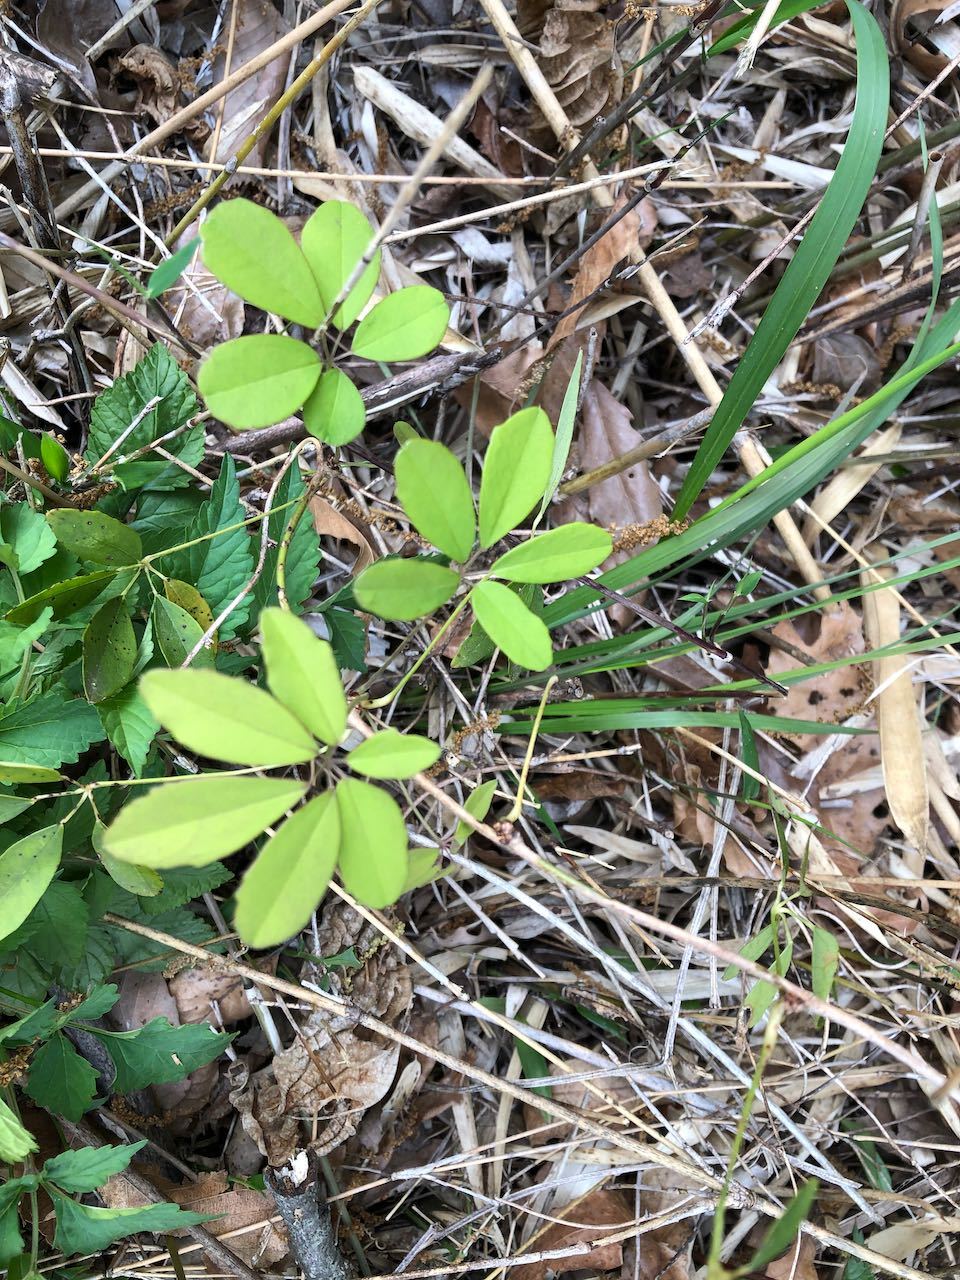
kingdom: Plantae
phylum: Tracheophyta
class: Magnoliopsida
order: Ranunculales
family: Lardizabalaceae
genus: Akebia
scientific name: Akebia quinata
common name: Five-leaf akebia
